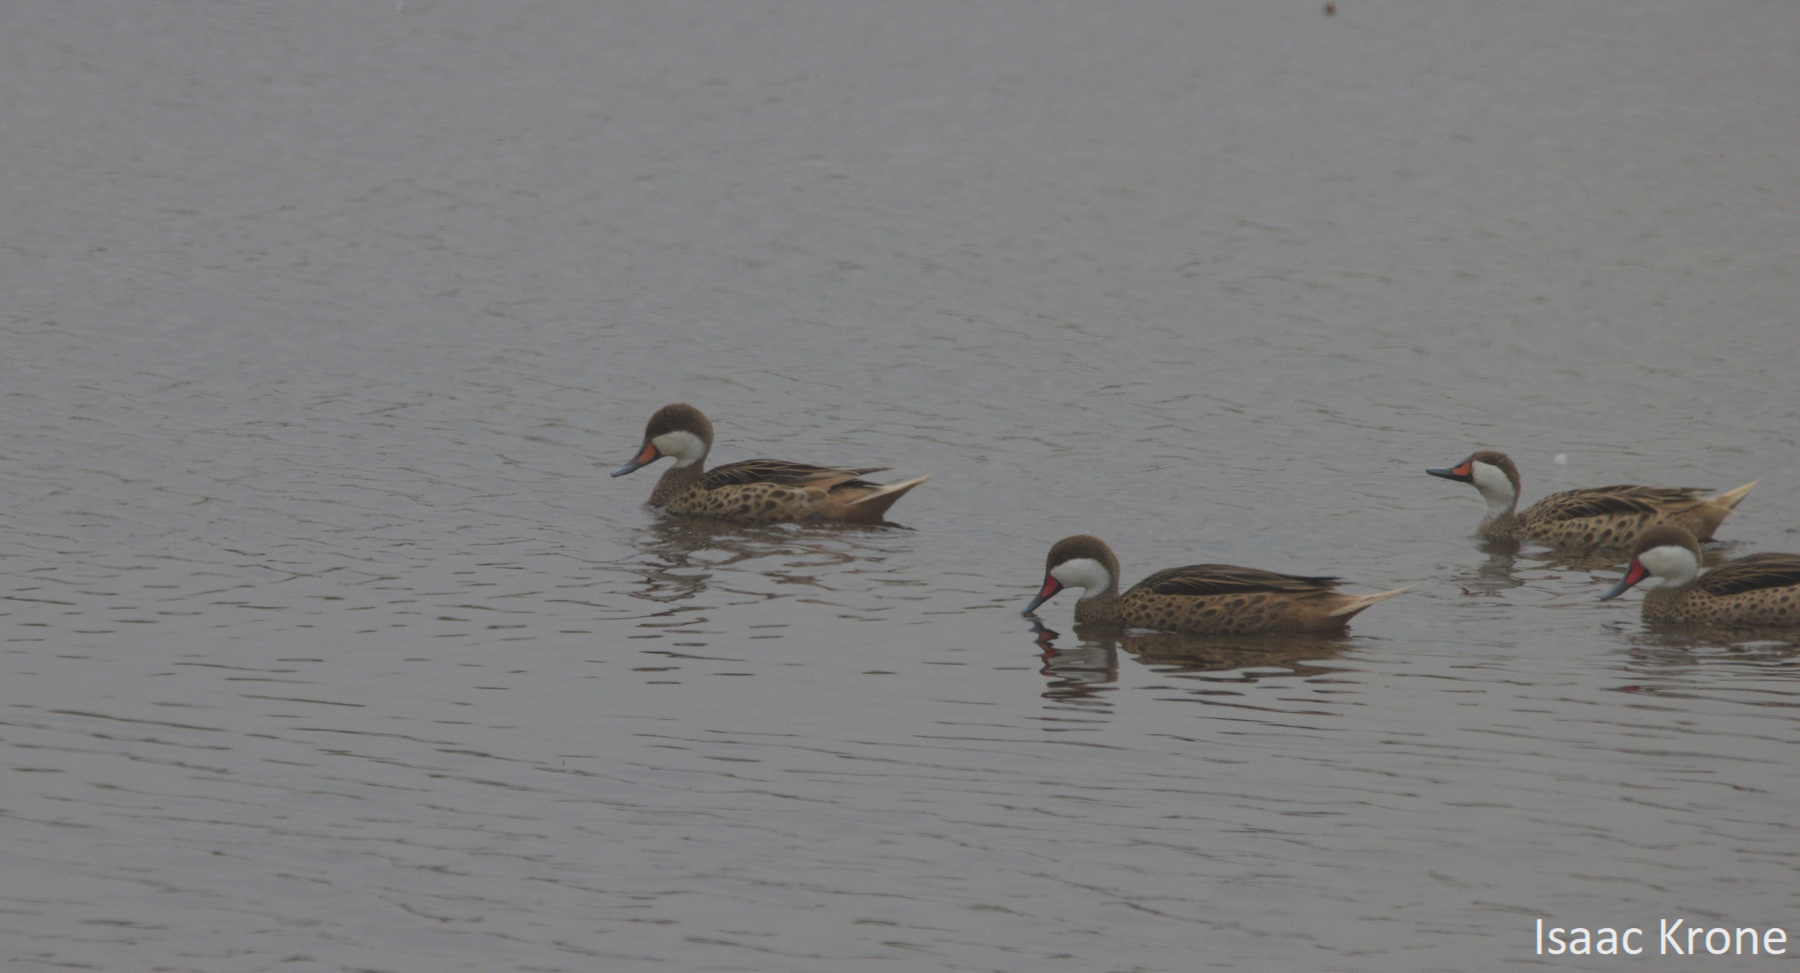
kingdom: Animalia
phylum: Chordata
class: Aves
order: Anseriformes
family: Anatidae
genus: Anas
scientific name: Anas bahamensis
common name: White-cheeked pintail
